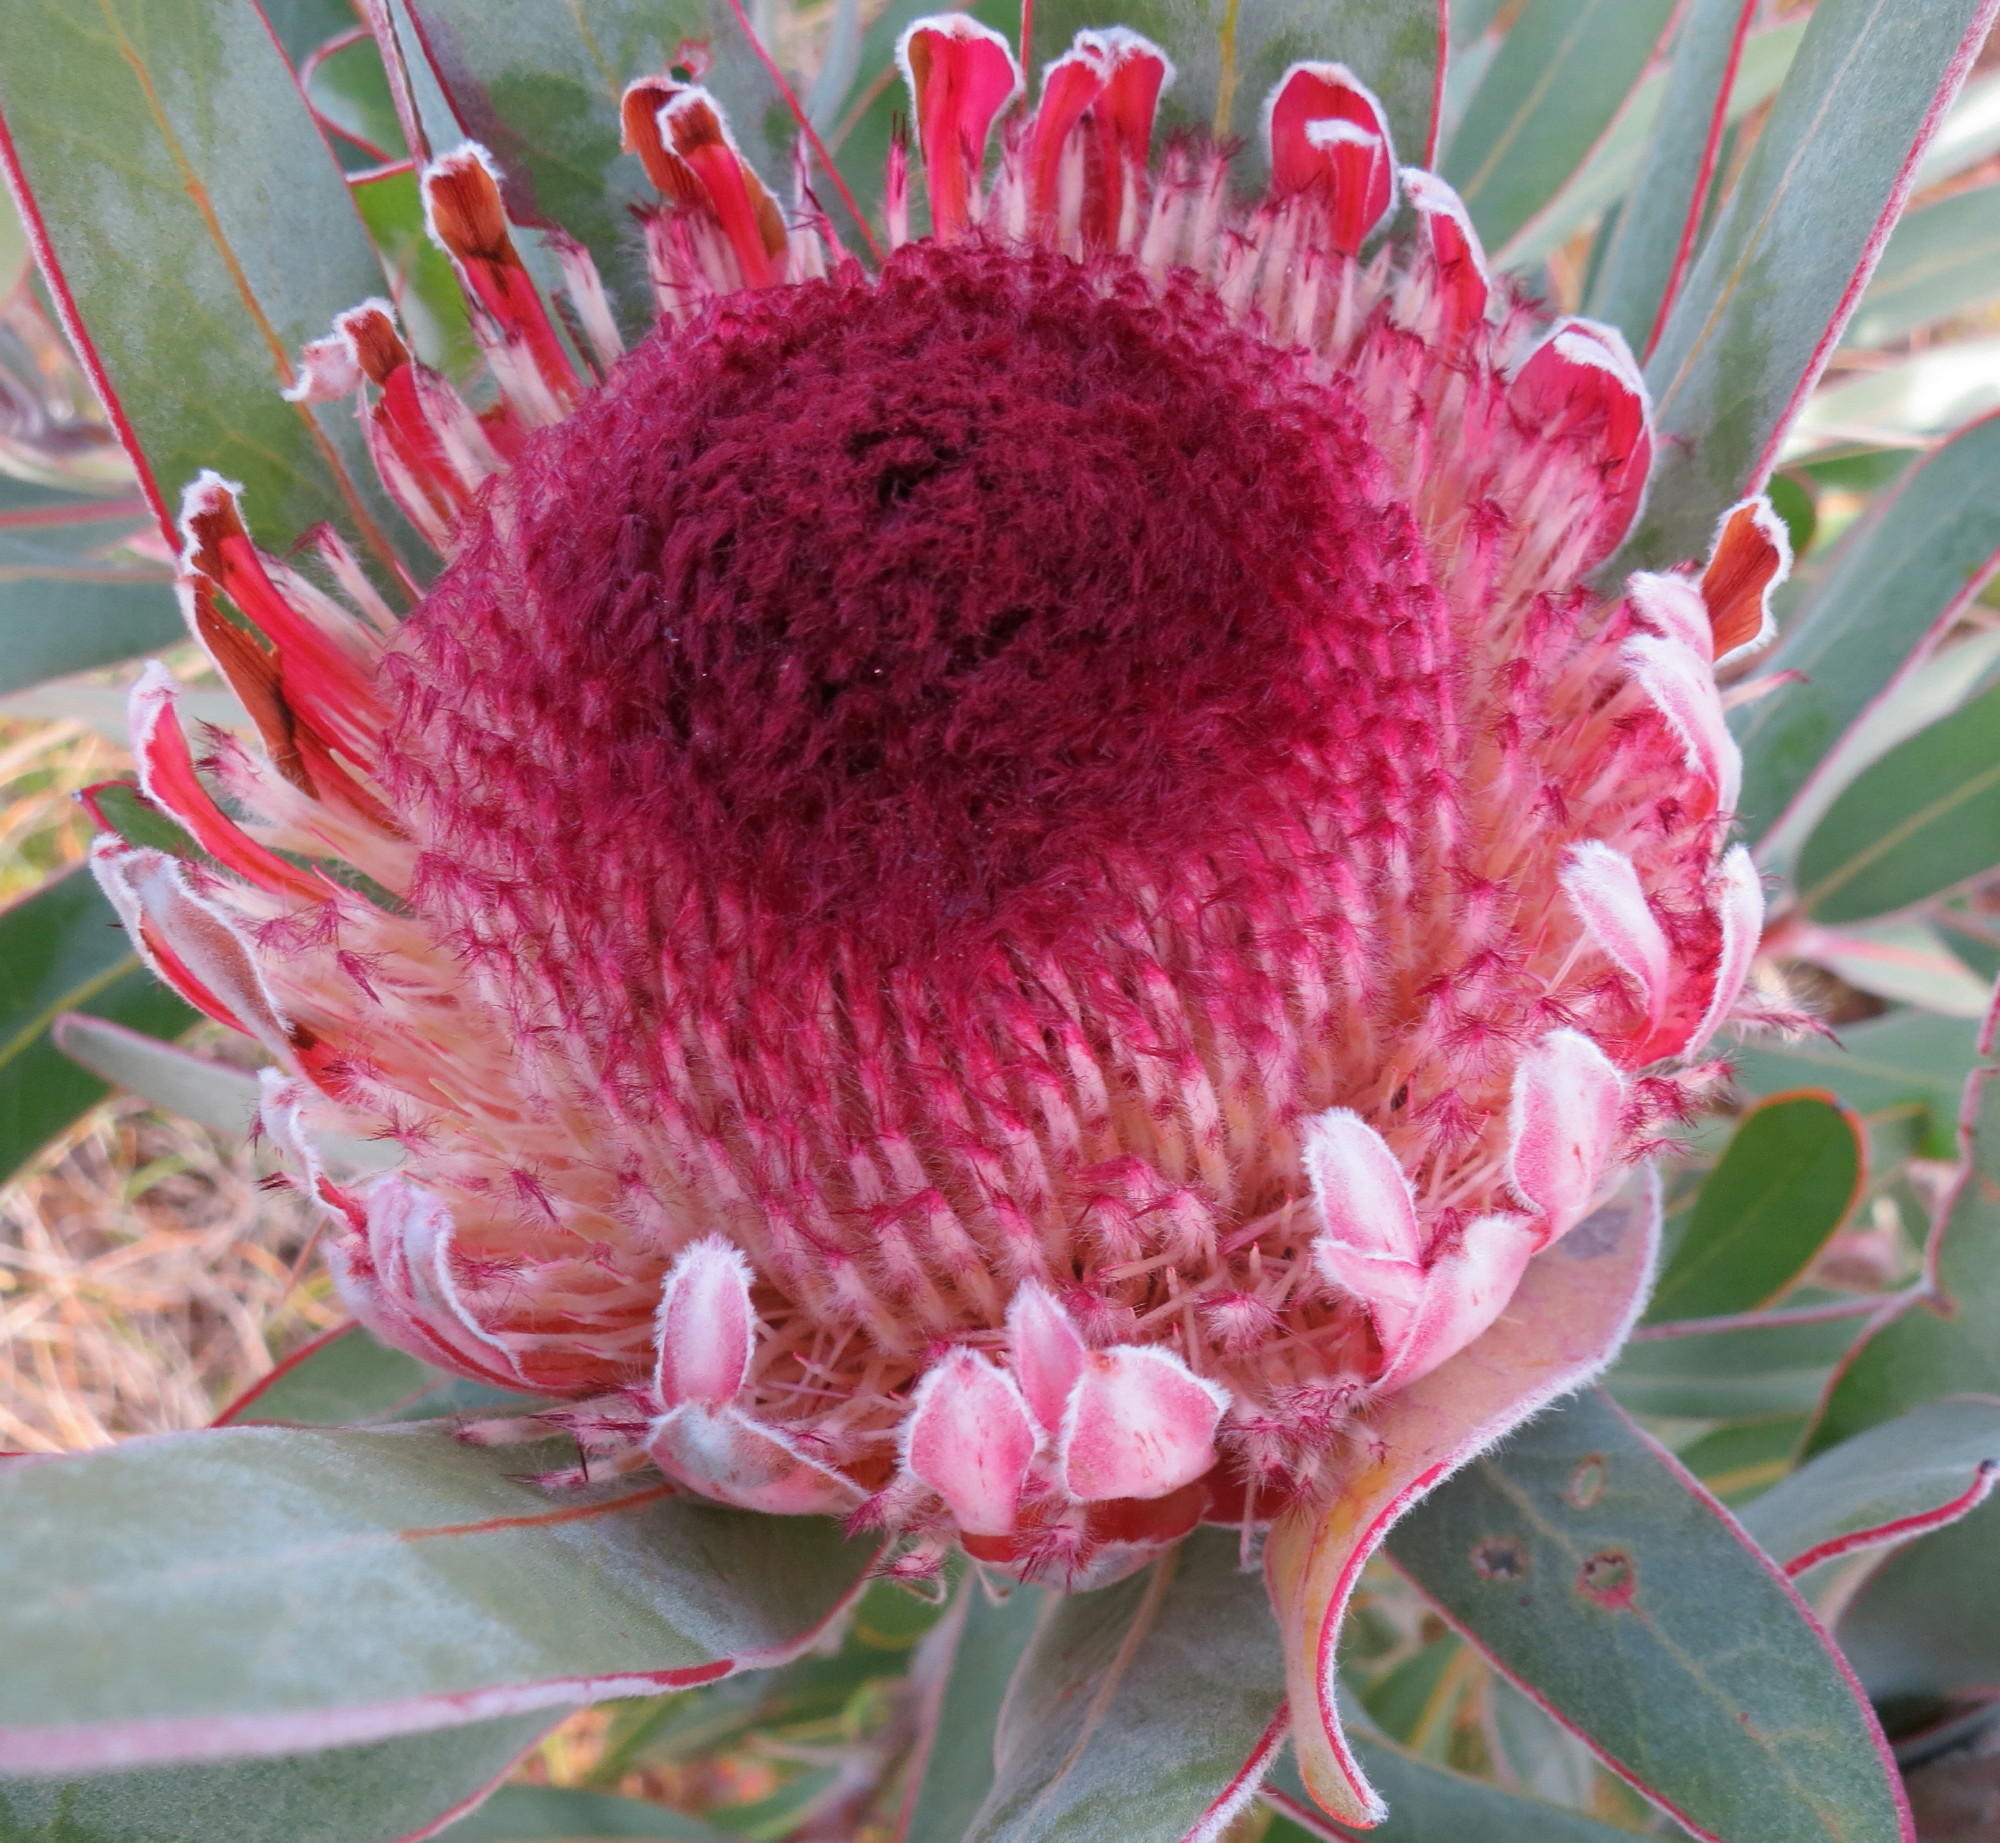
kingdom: Plantae
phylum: Tracheophyta
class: Magnoliopsida
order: Proteales
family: Proteaceae
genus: Protea
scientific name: Protea lorifolia
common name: Strap-leaved protea
